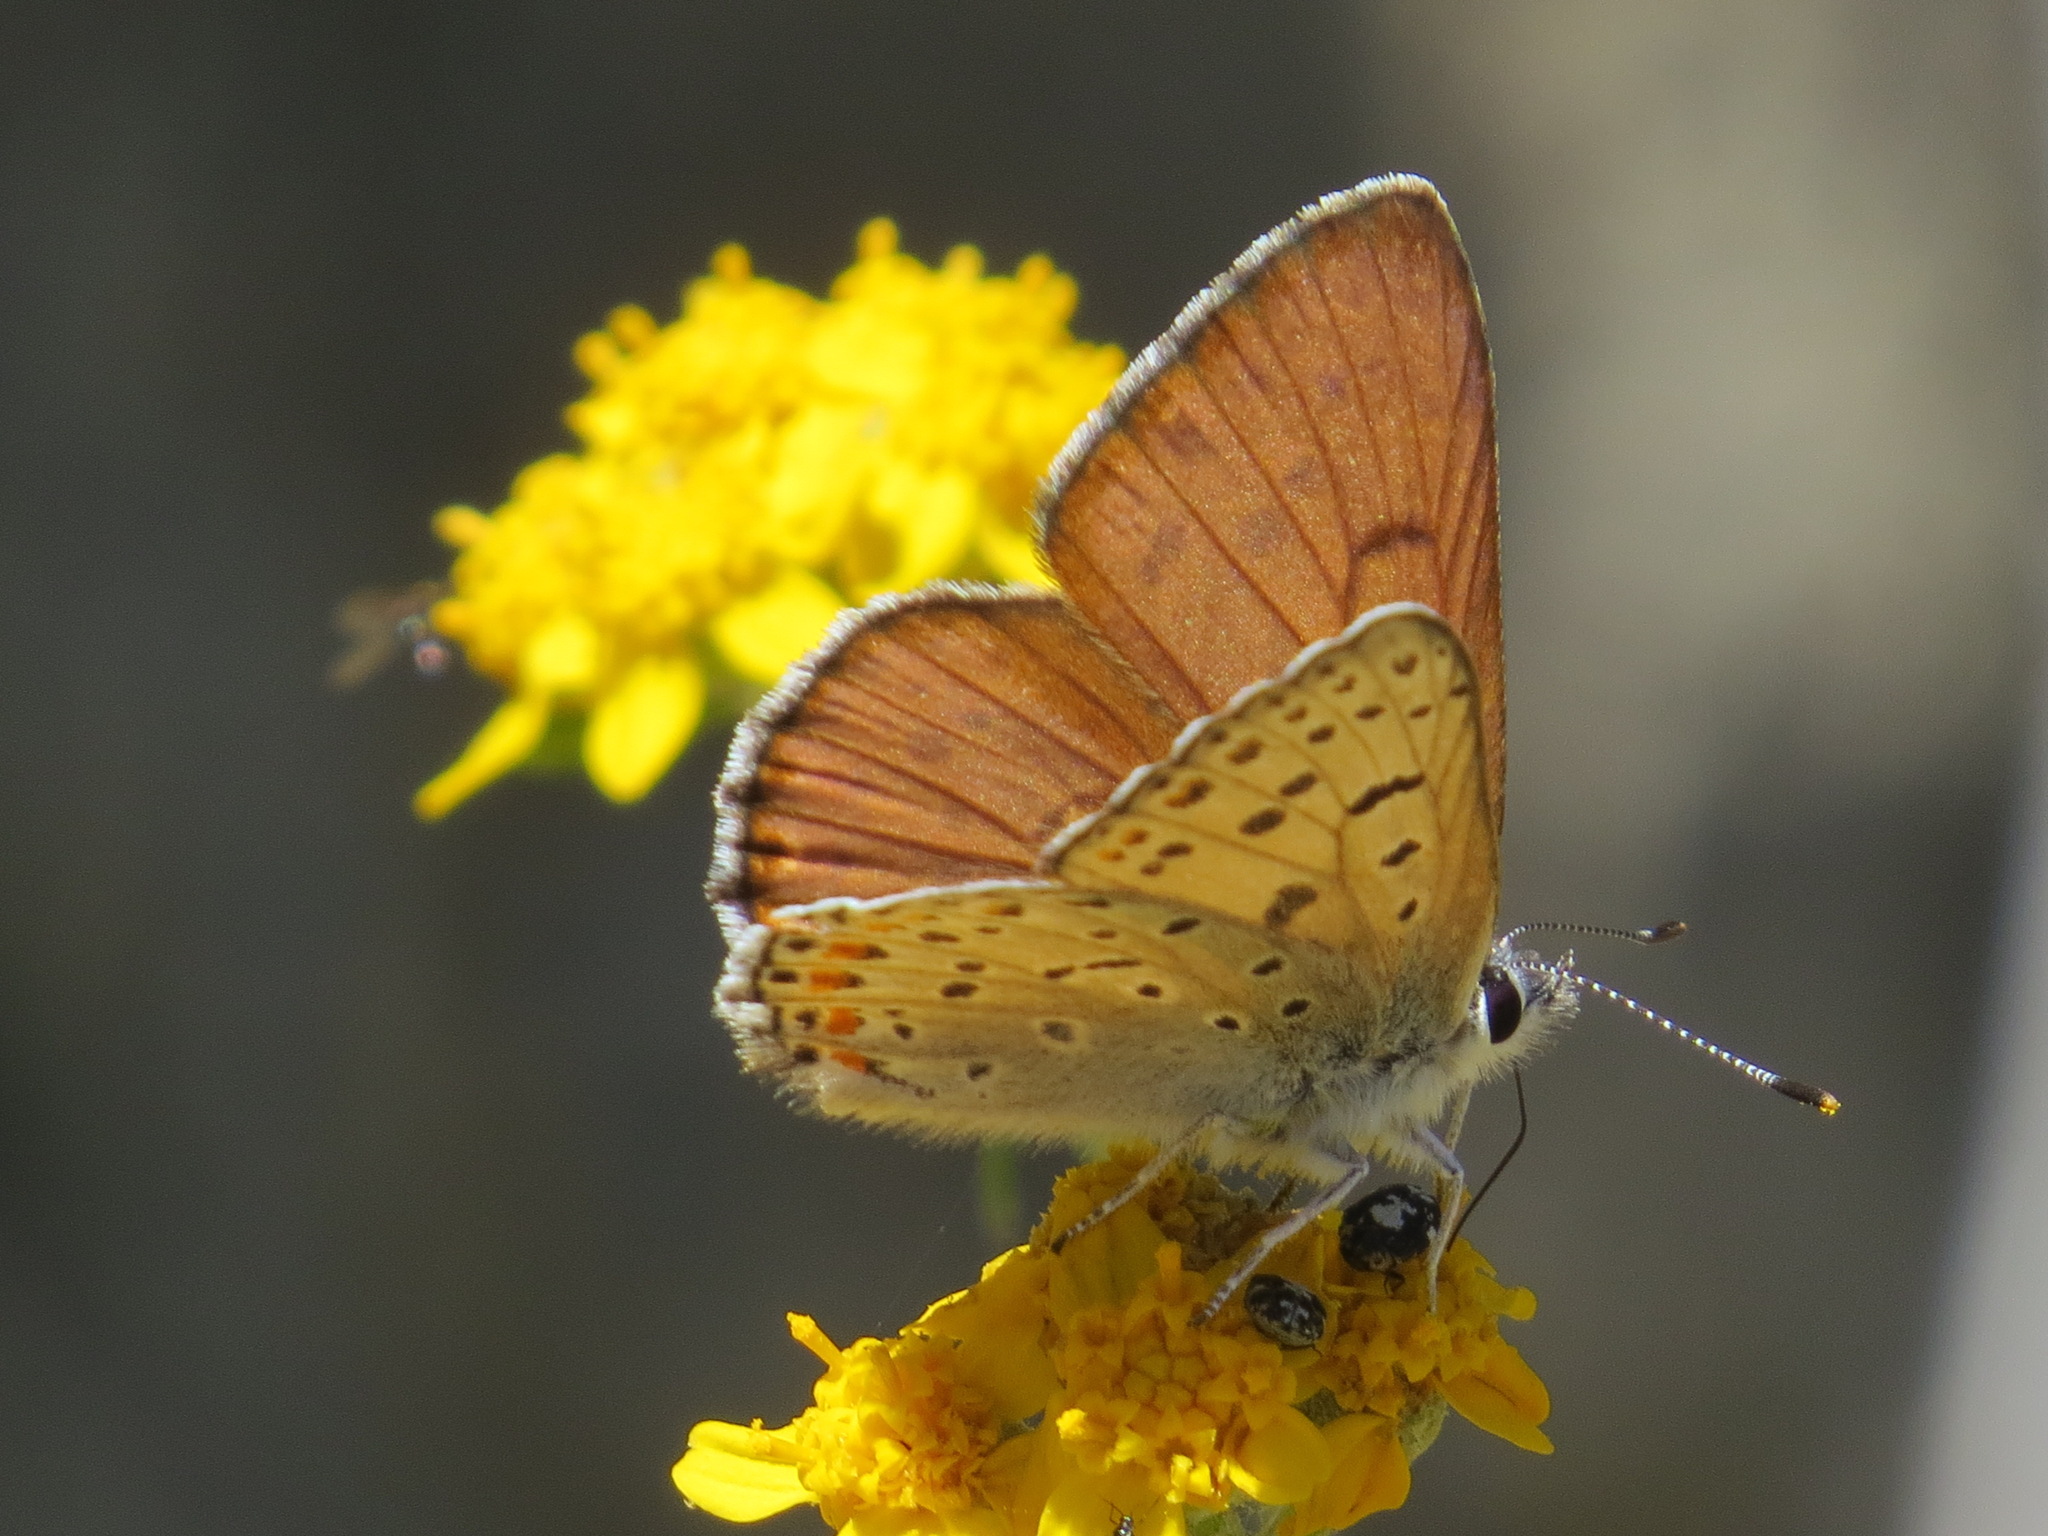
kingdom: Animalia
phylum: Arthropoda
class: Insecta
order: Lepidoptera
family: Lycaenidae
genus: Tharsalea
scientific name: Tharsalea gorgon
